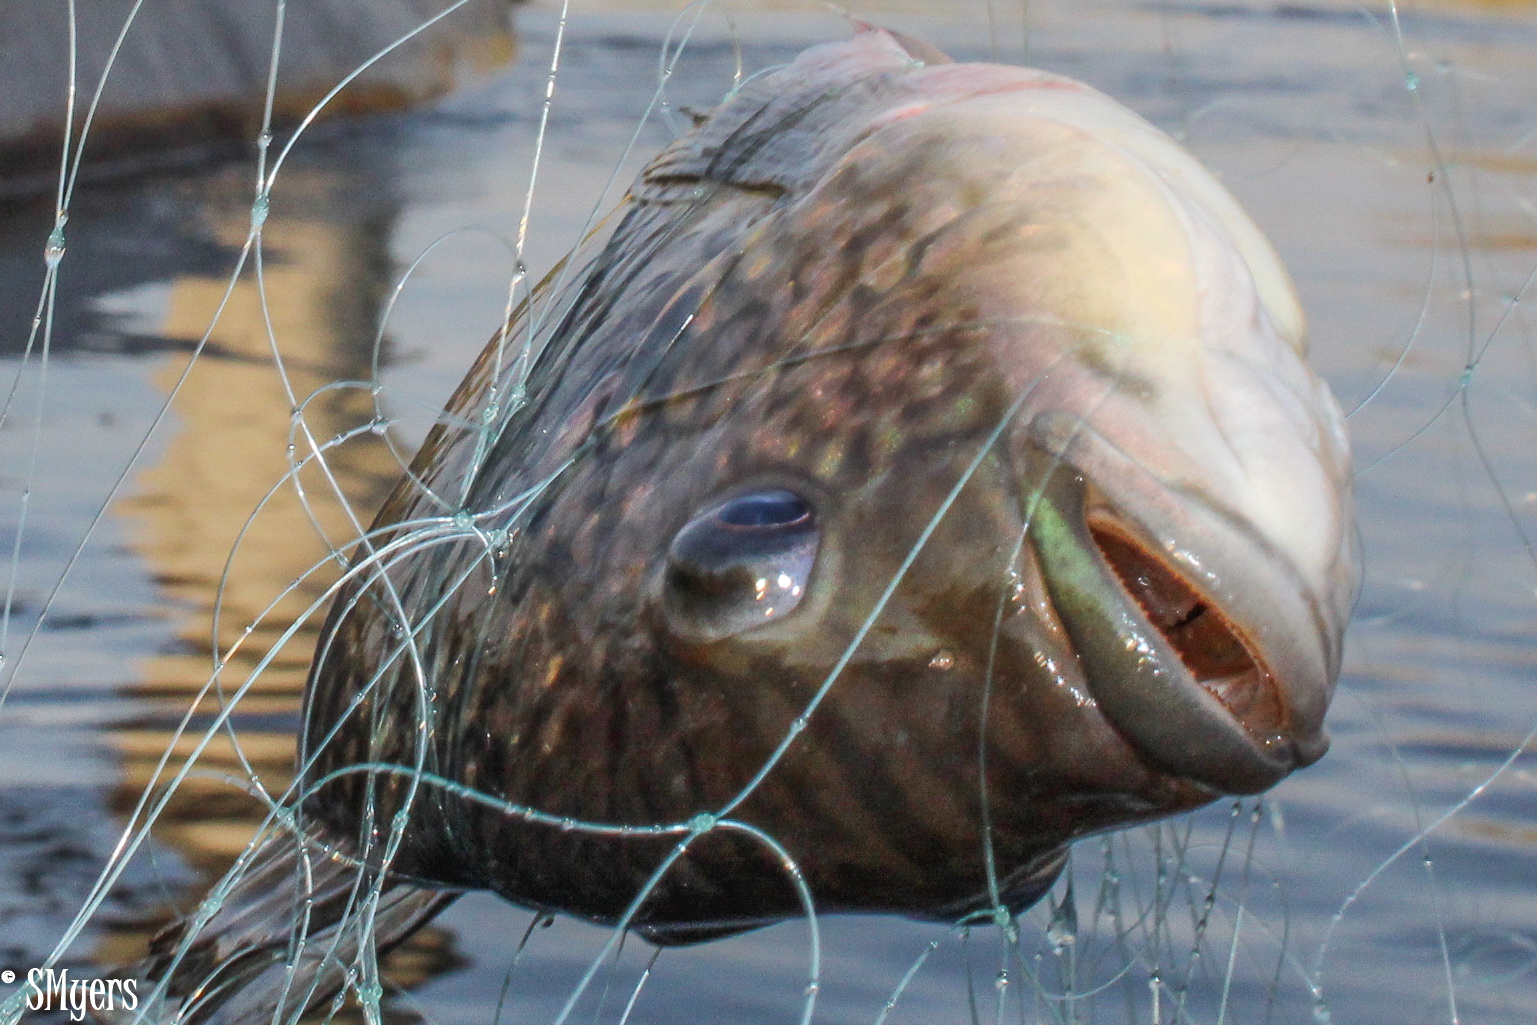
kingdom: Animalia
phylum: Chordata
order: Perciformes
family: Cichlidae
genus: Coptodon
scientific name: Coptodon rendalli
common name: Redbreast tilapia
